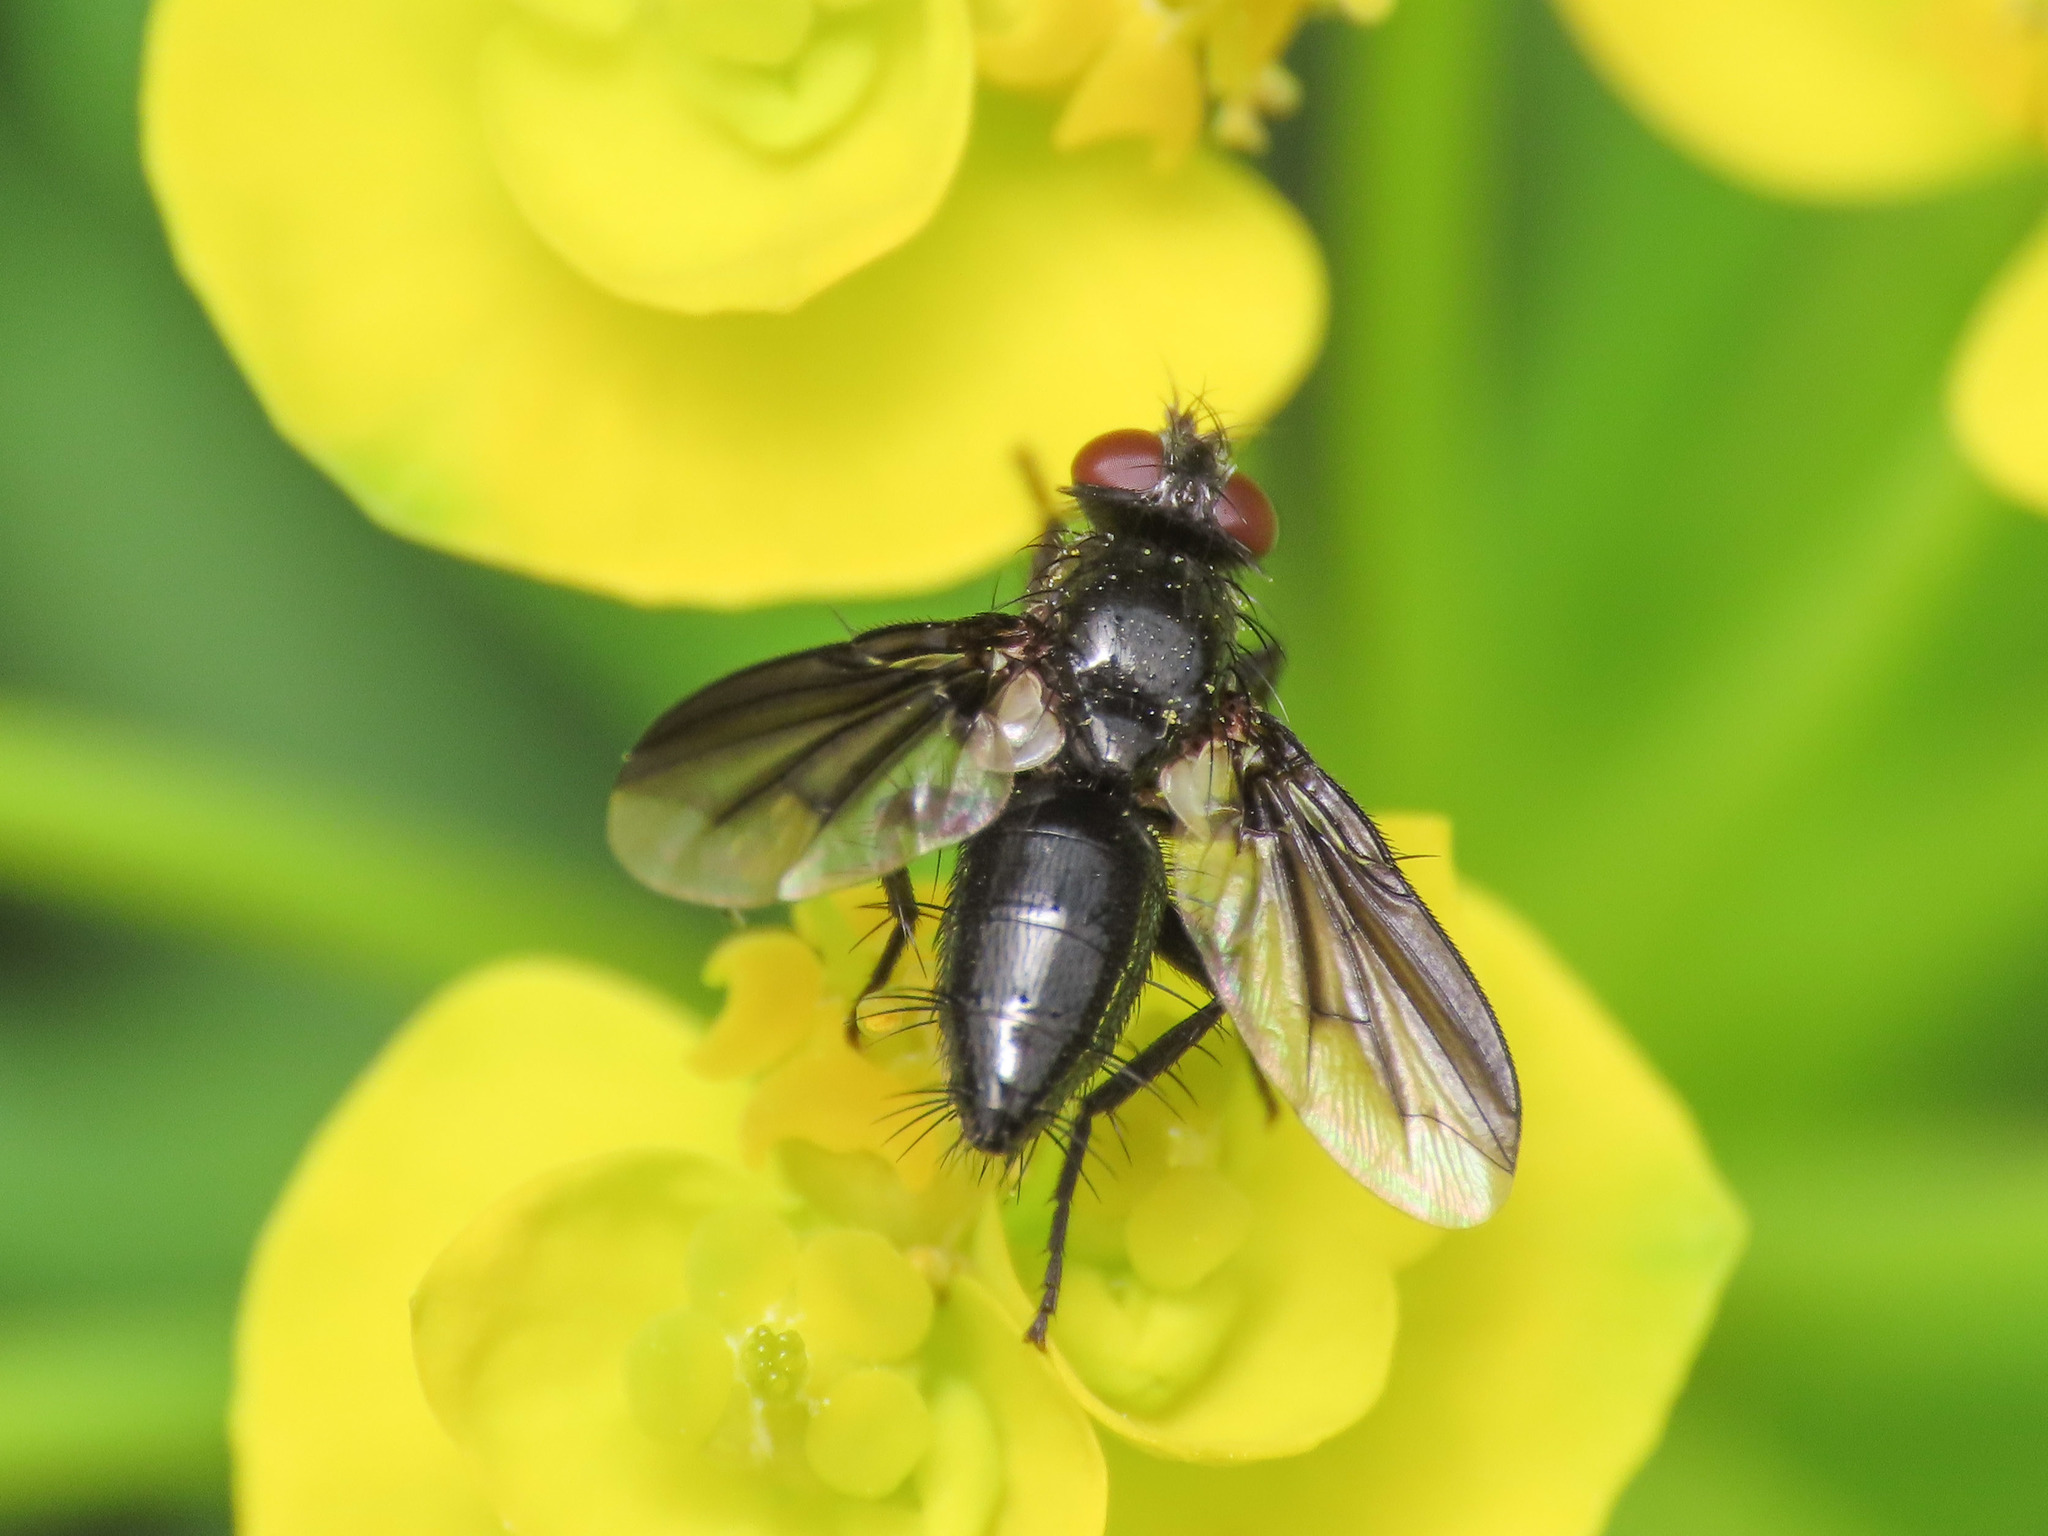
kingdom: Animalia
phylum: Arthropoda
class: Insecta
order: Diptera
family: Sarcophagidae
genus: Nyctia
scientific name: Nyctia halterata
